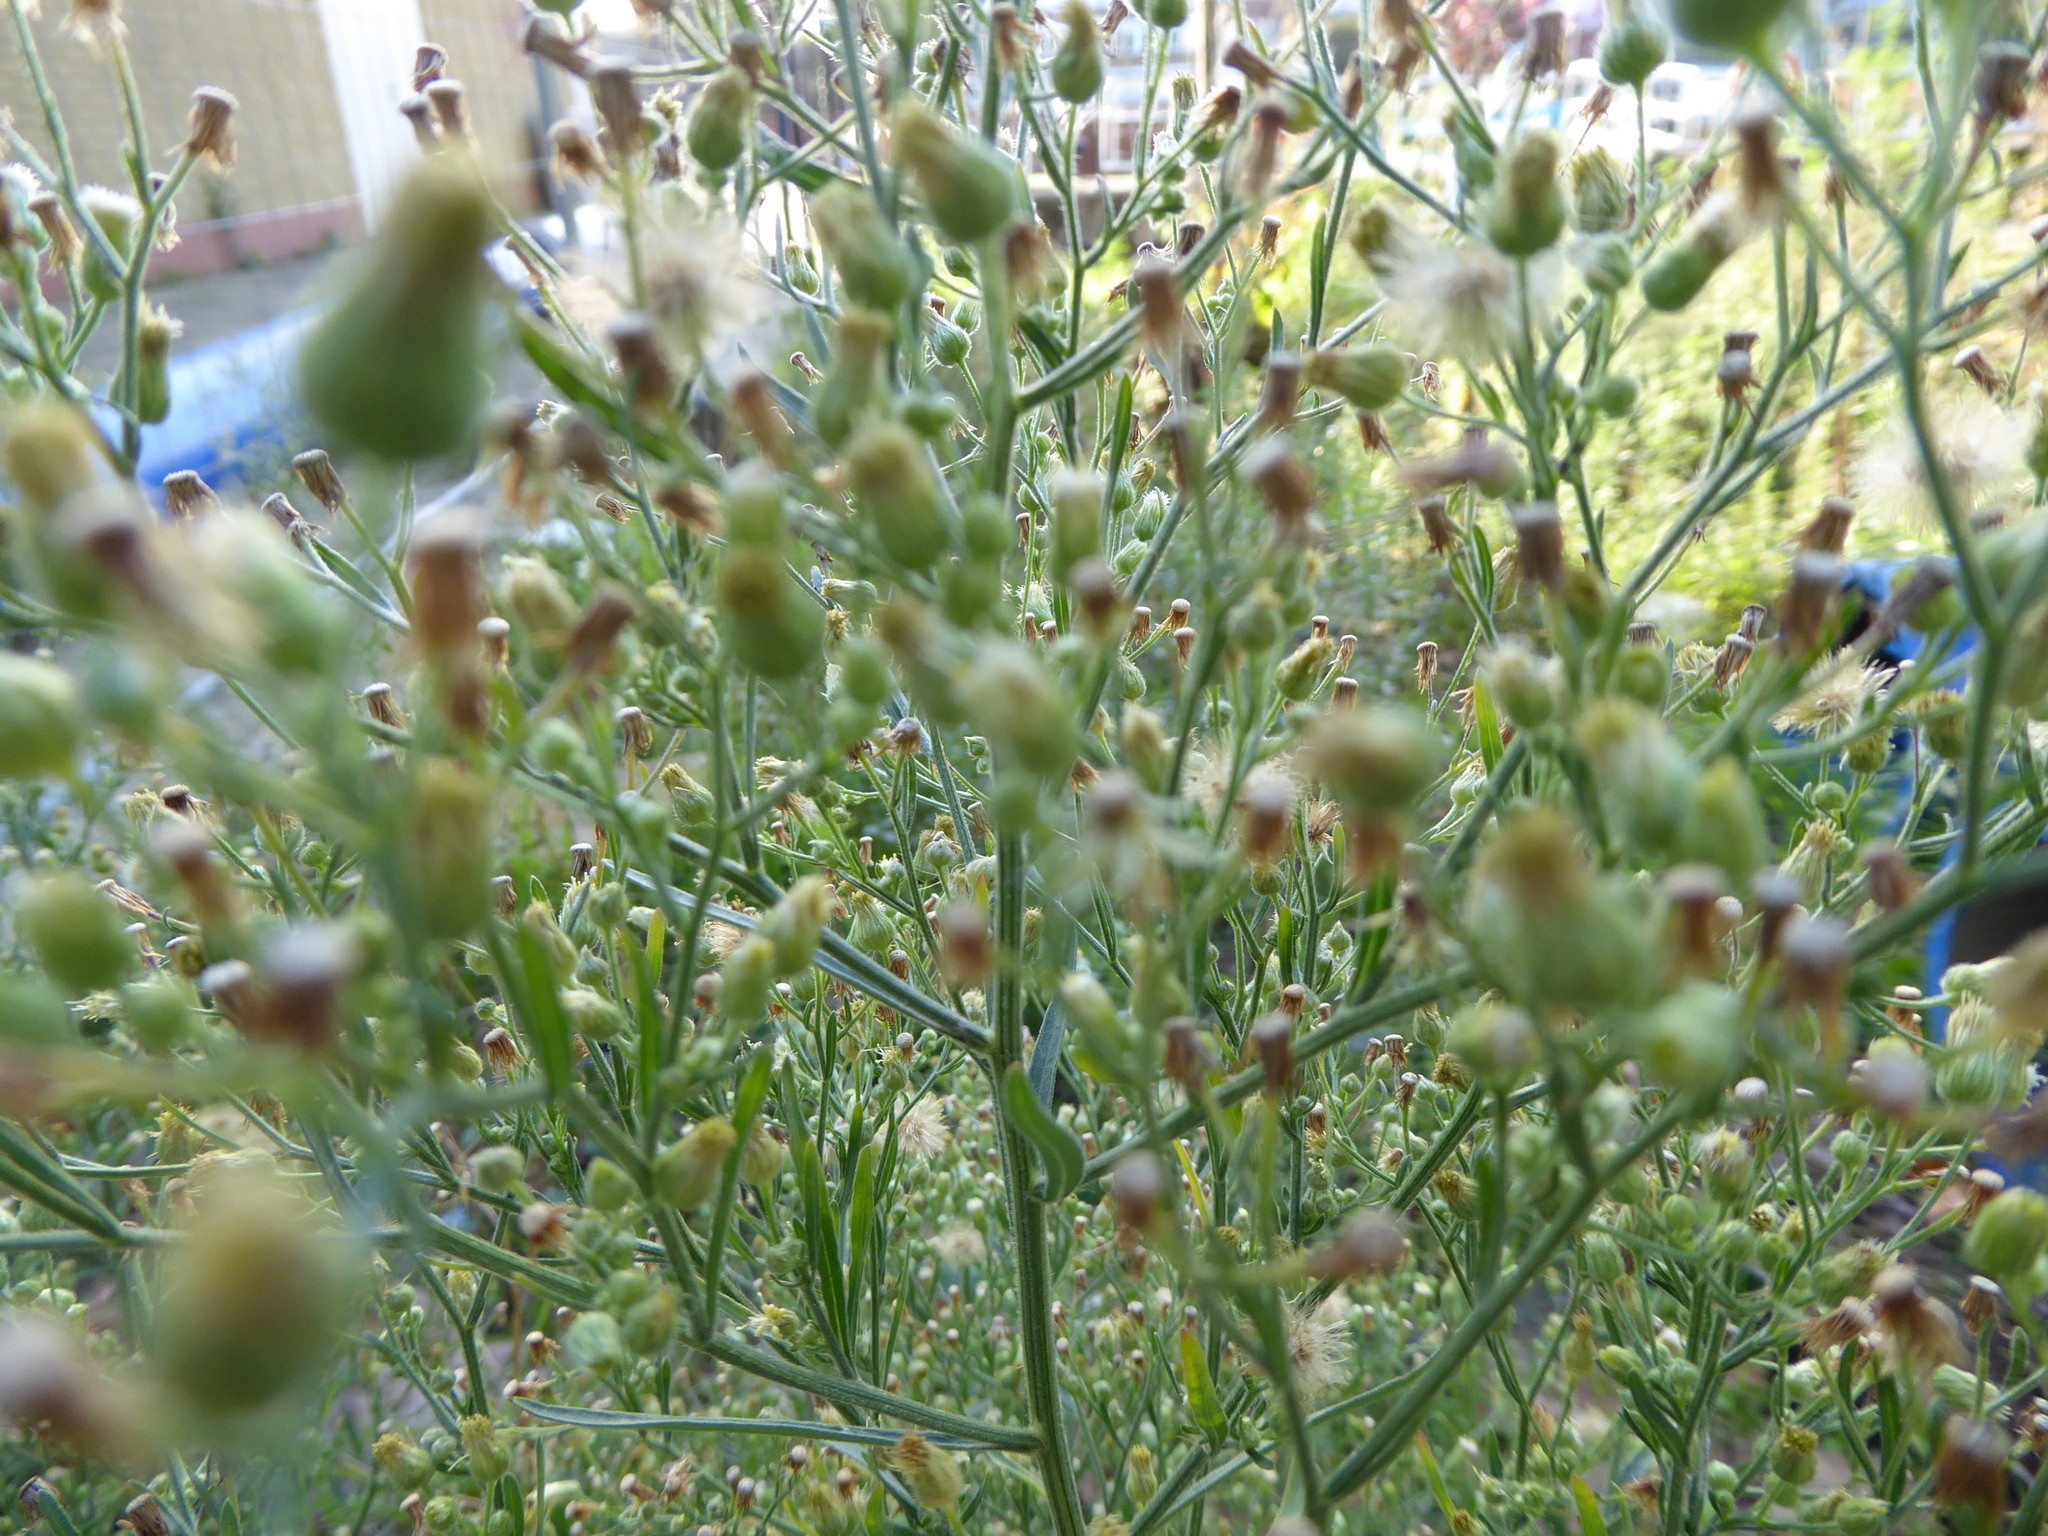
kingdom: Plantae
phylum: Tracheophyta
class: Magnoliopsida
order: Asterales
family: Asteraceae
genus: Erigeron
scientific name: Erigeron sumatrensis
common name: Daisy
